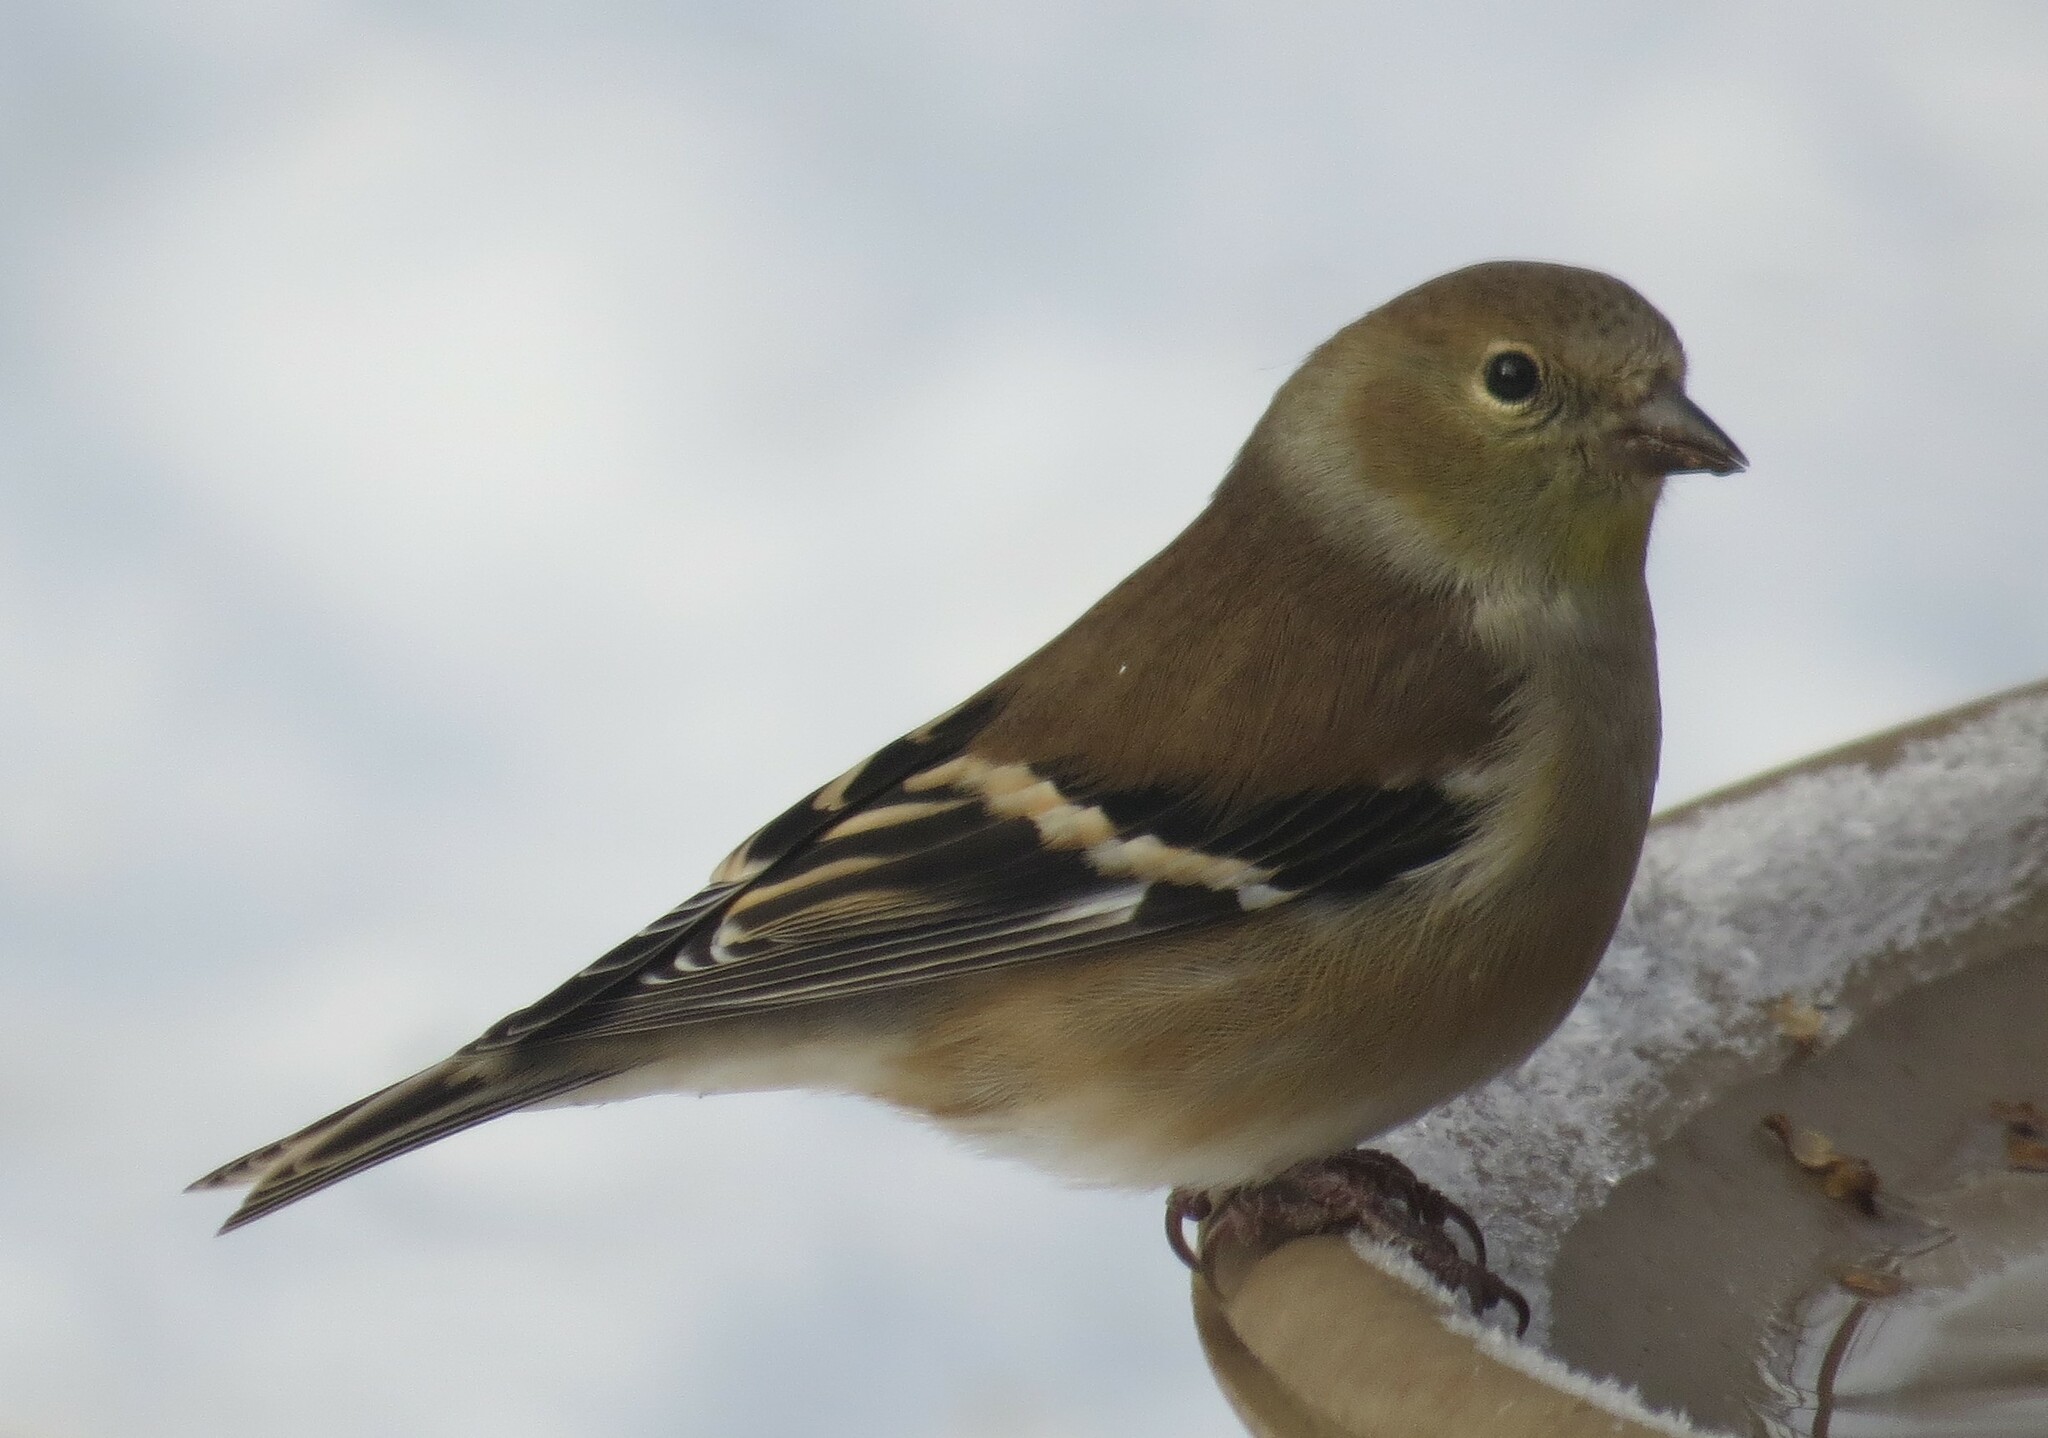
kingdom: Animalia
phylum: Chordata
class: Aves
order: Passeriformes
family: Fringillidae
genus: Spinus
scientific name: Spinus tristis
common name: American goldfinch
